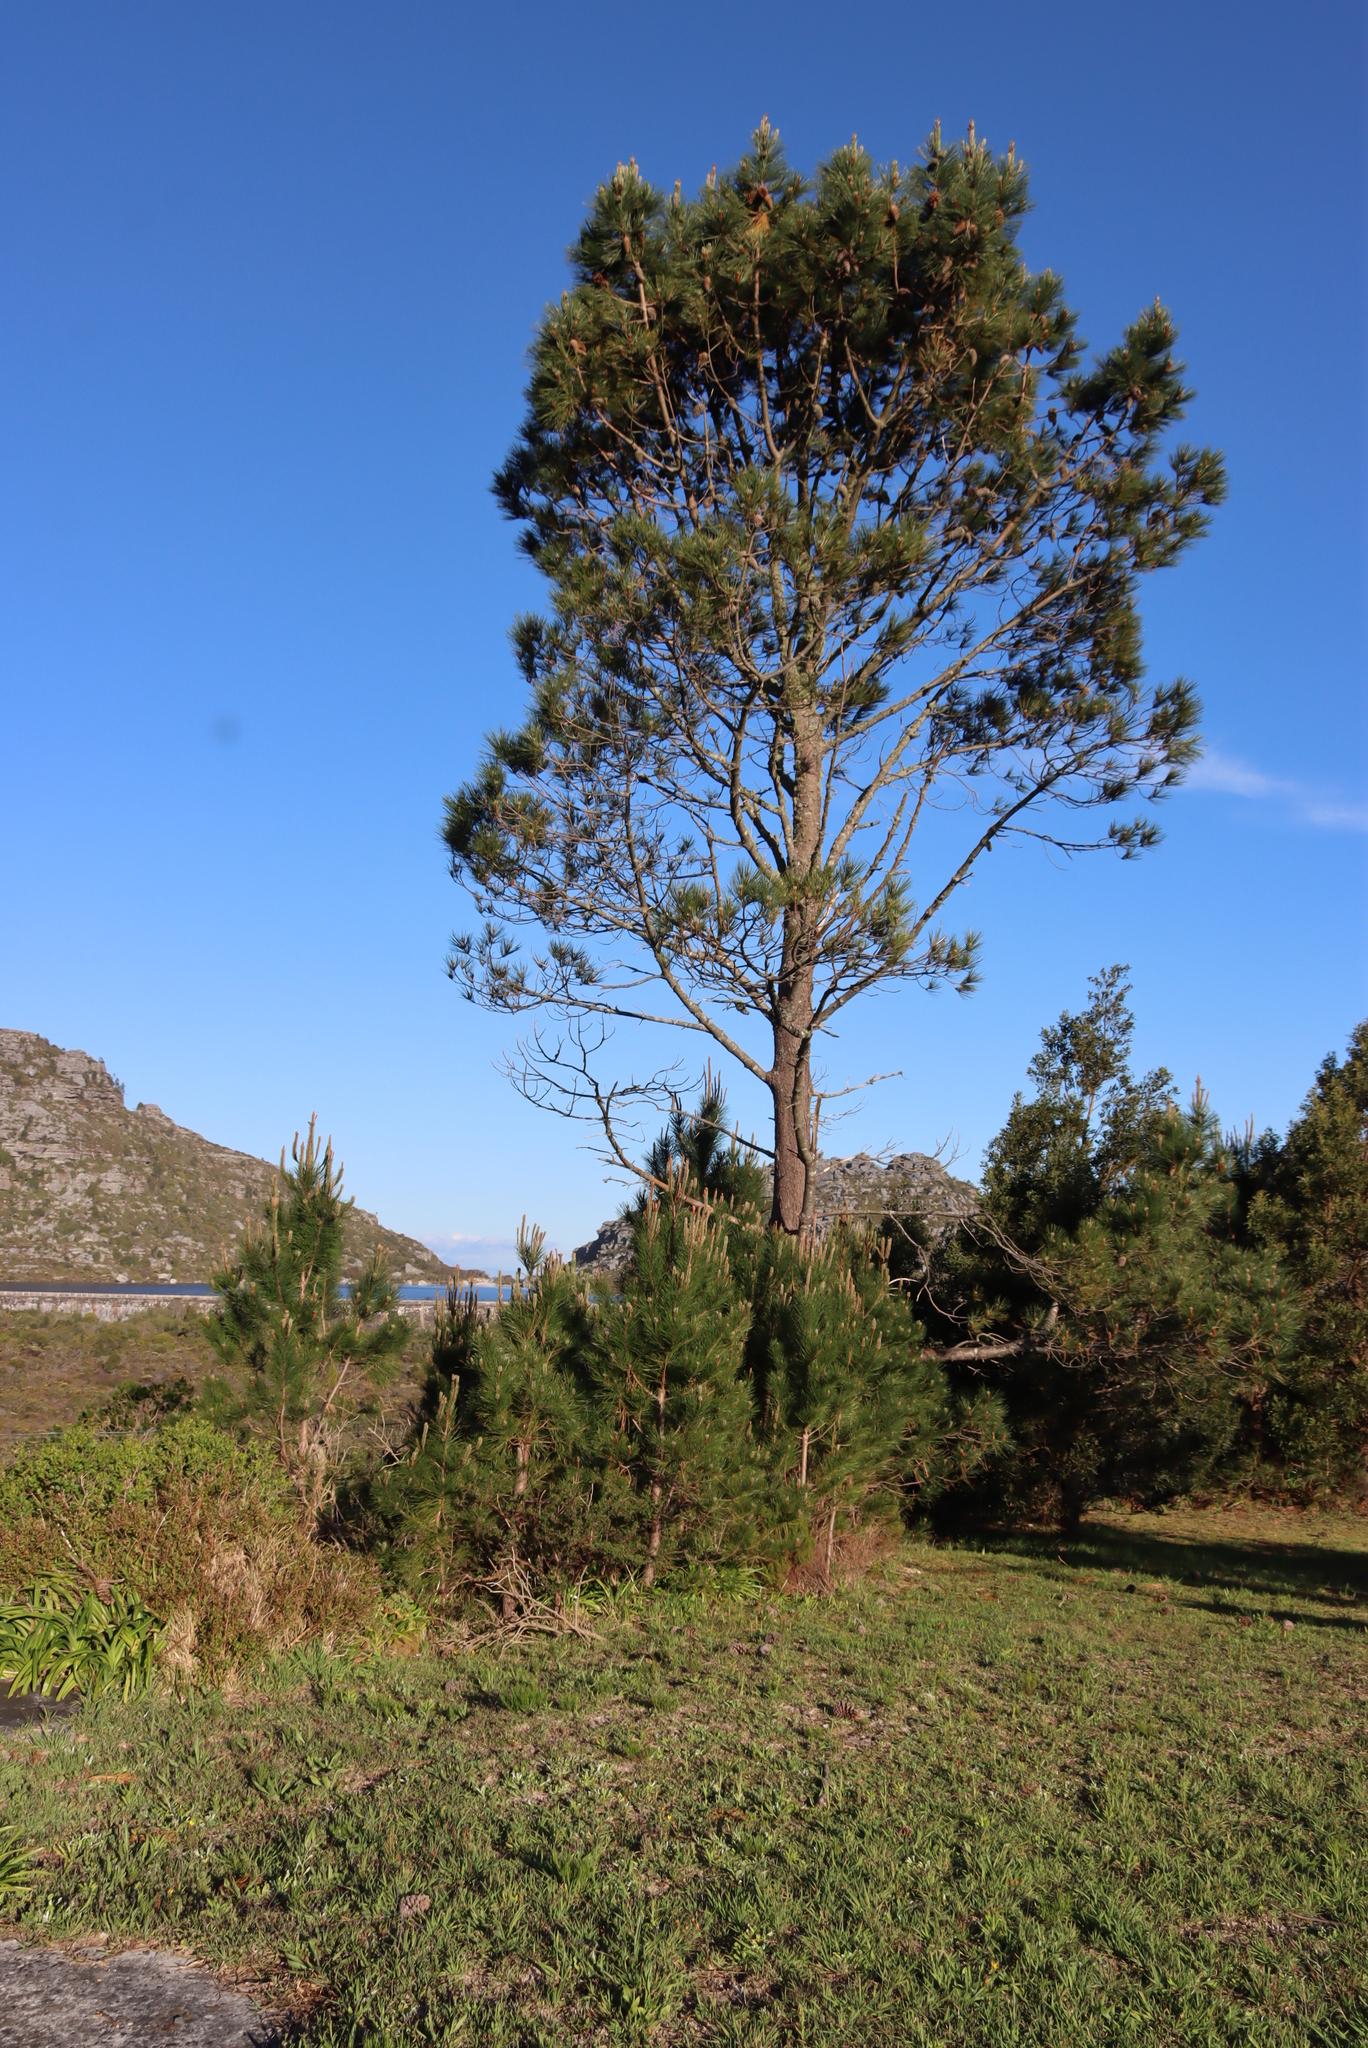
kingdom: Plantae
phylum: Tracheophyta
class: Pinopsida
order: Pinales
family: Pinaceae
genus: Pinus
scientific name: Pinus pinaster
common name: Maritime pine
